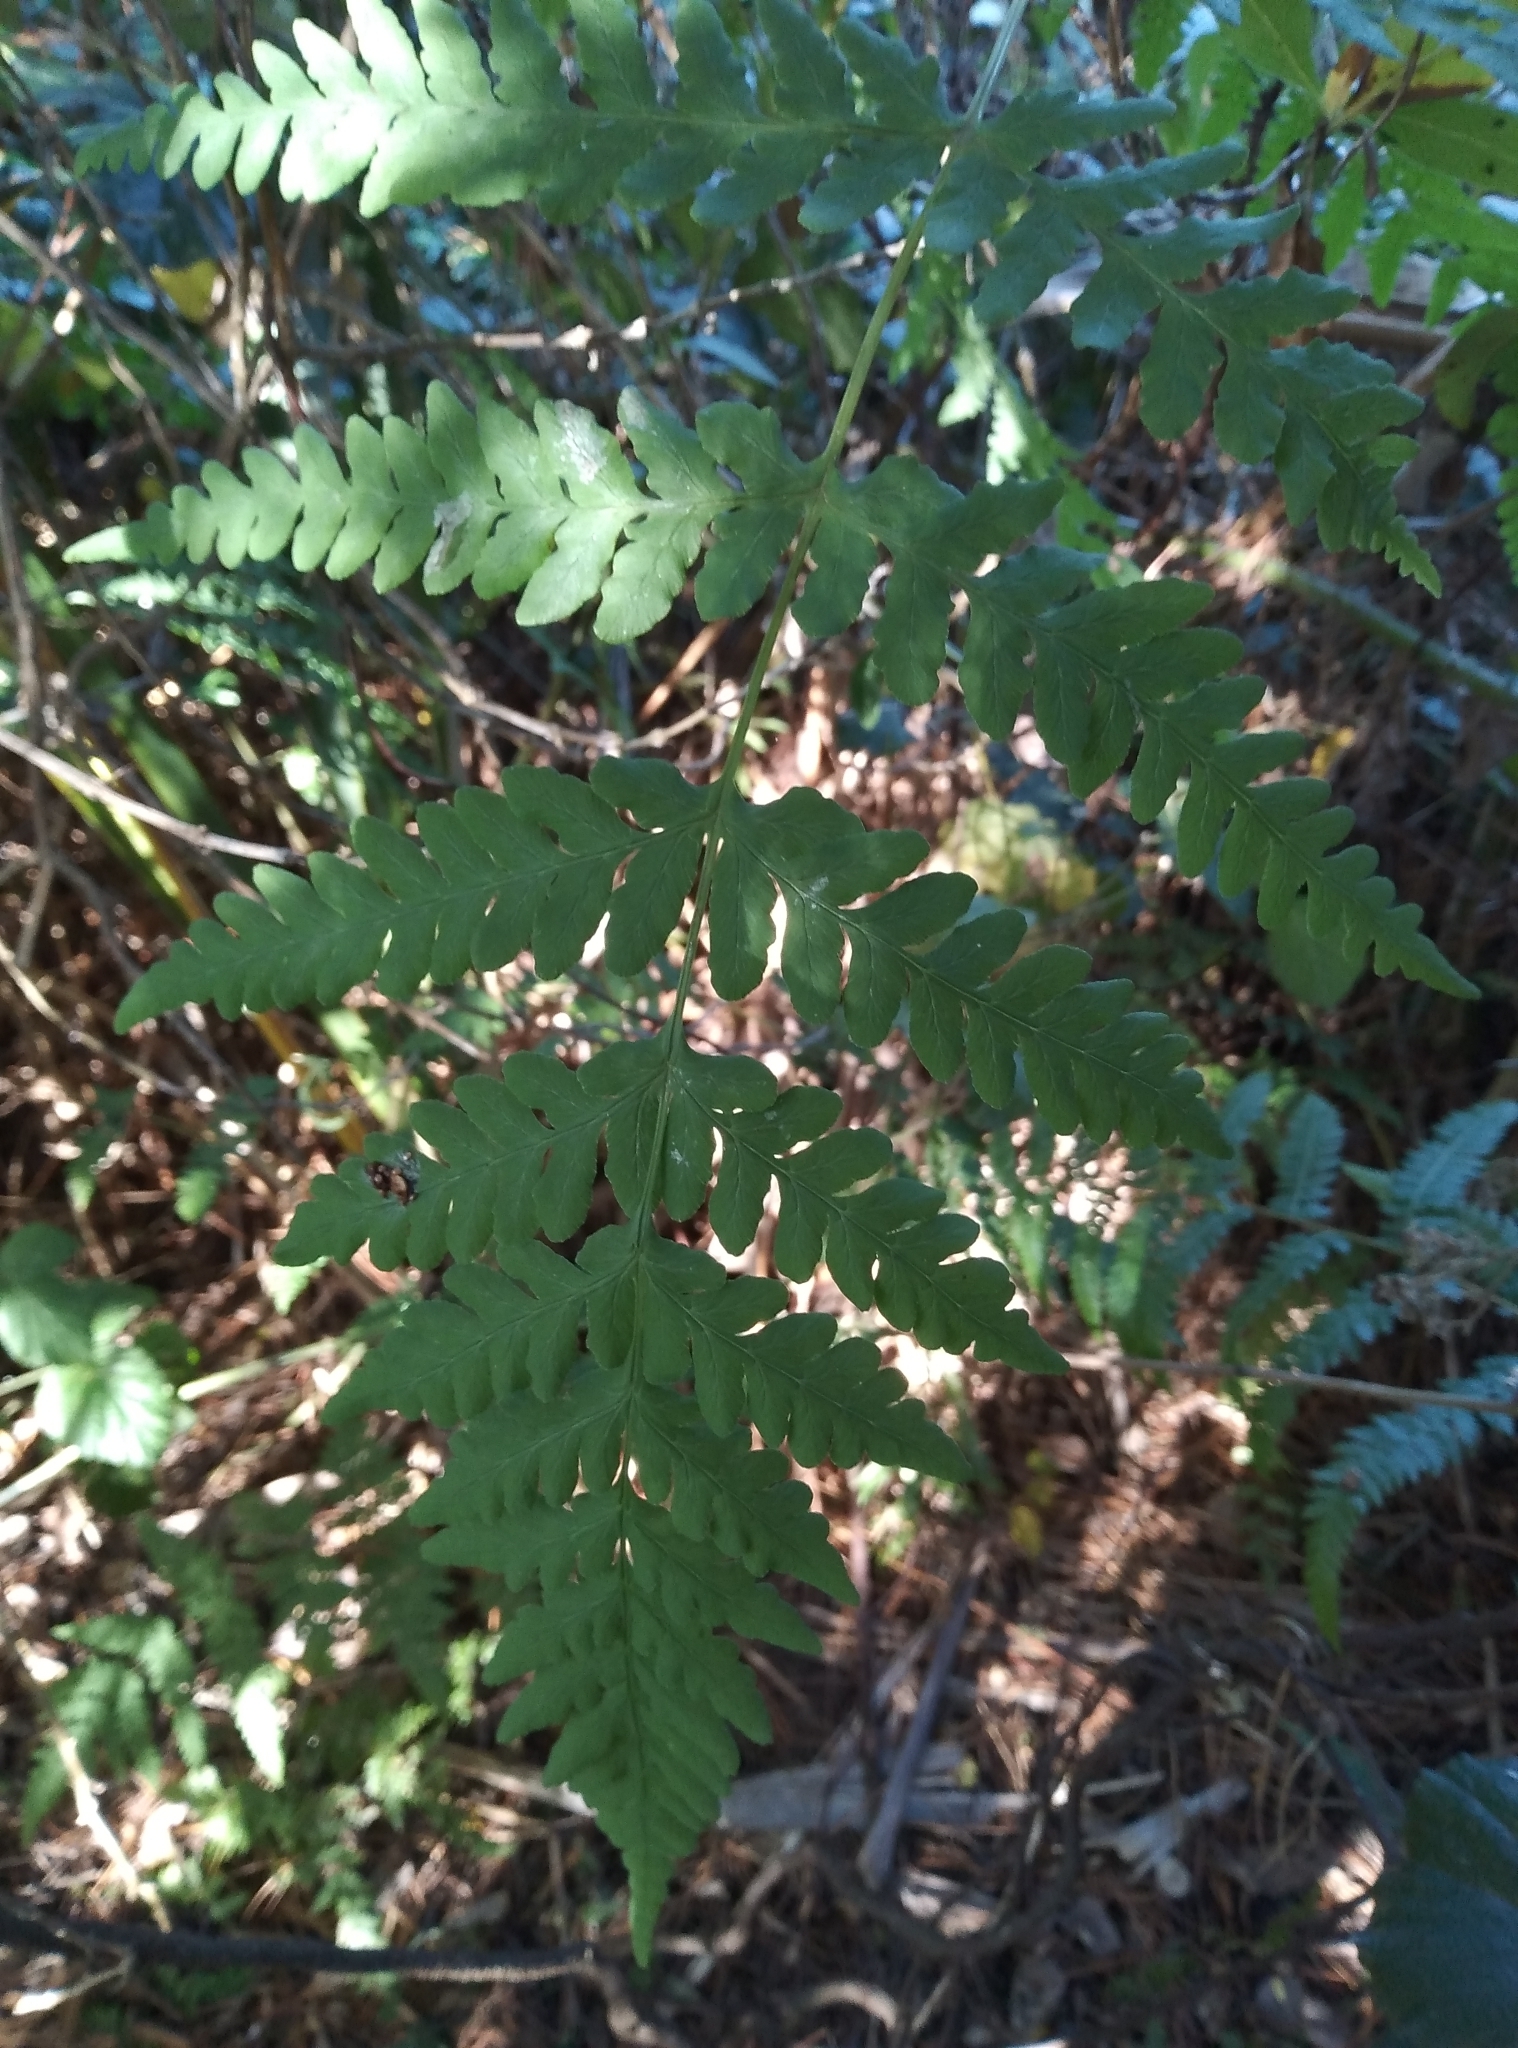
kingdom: Plantae
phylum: Tracheophyta
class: Polypodiopsida
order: Polypodiales
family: Dennstaedtiaceae
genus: Histiopteris
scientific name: Histiopteris incisa
